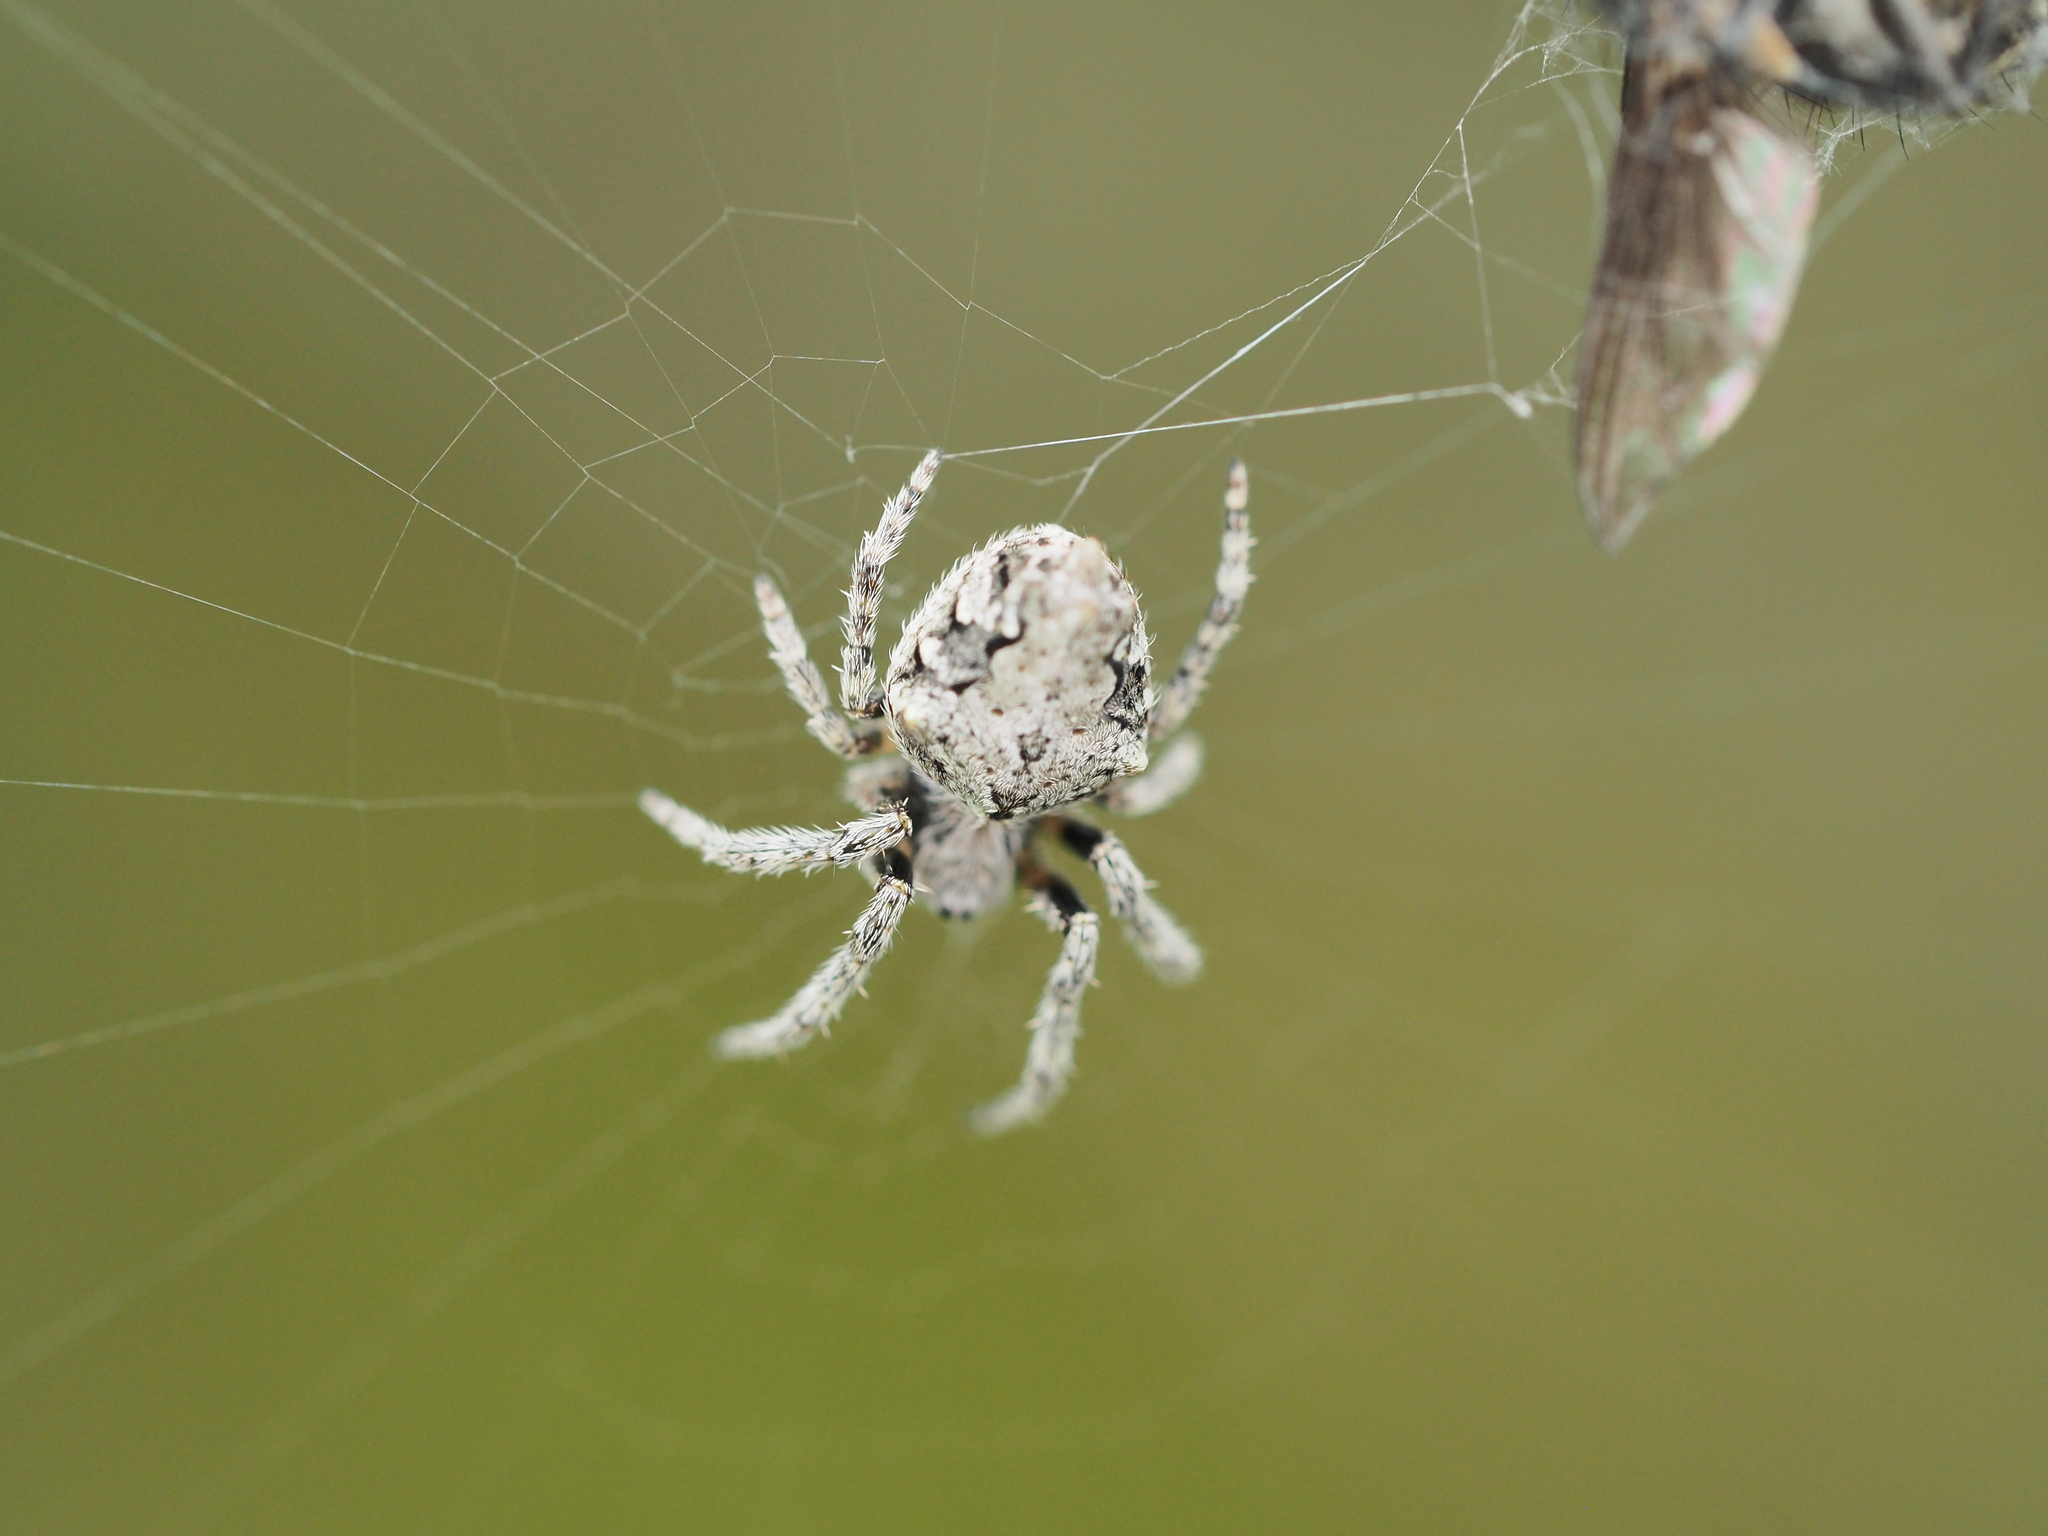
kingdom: Animalia
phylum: Arthropoda
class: Arachnida
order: Araneae
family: Araneidae
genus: Eriophora
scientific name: Eriophora pustulosa
